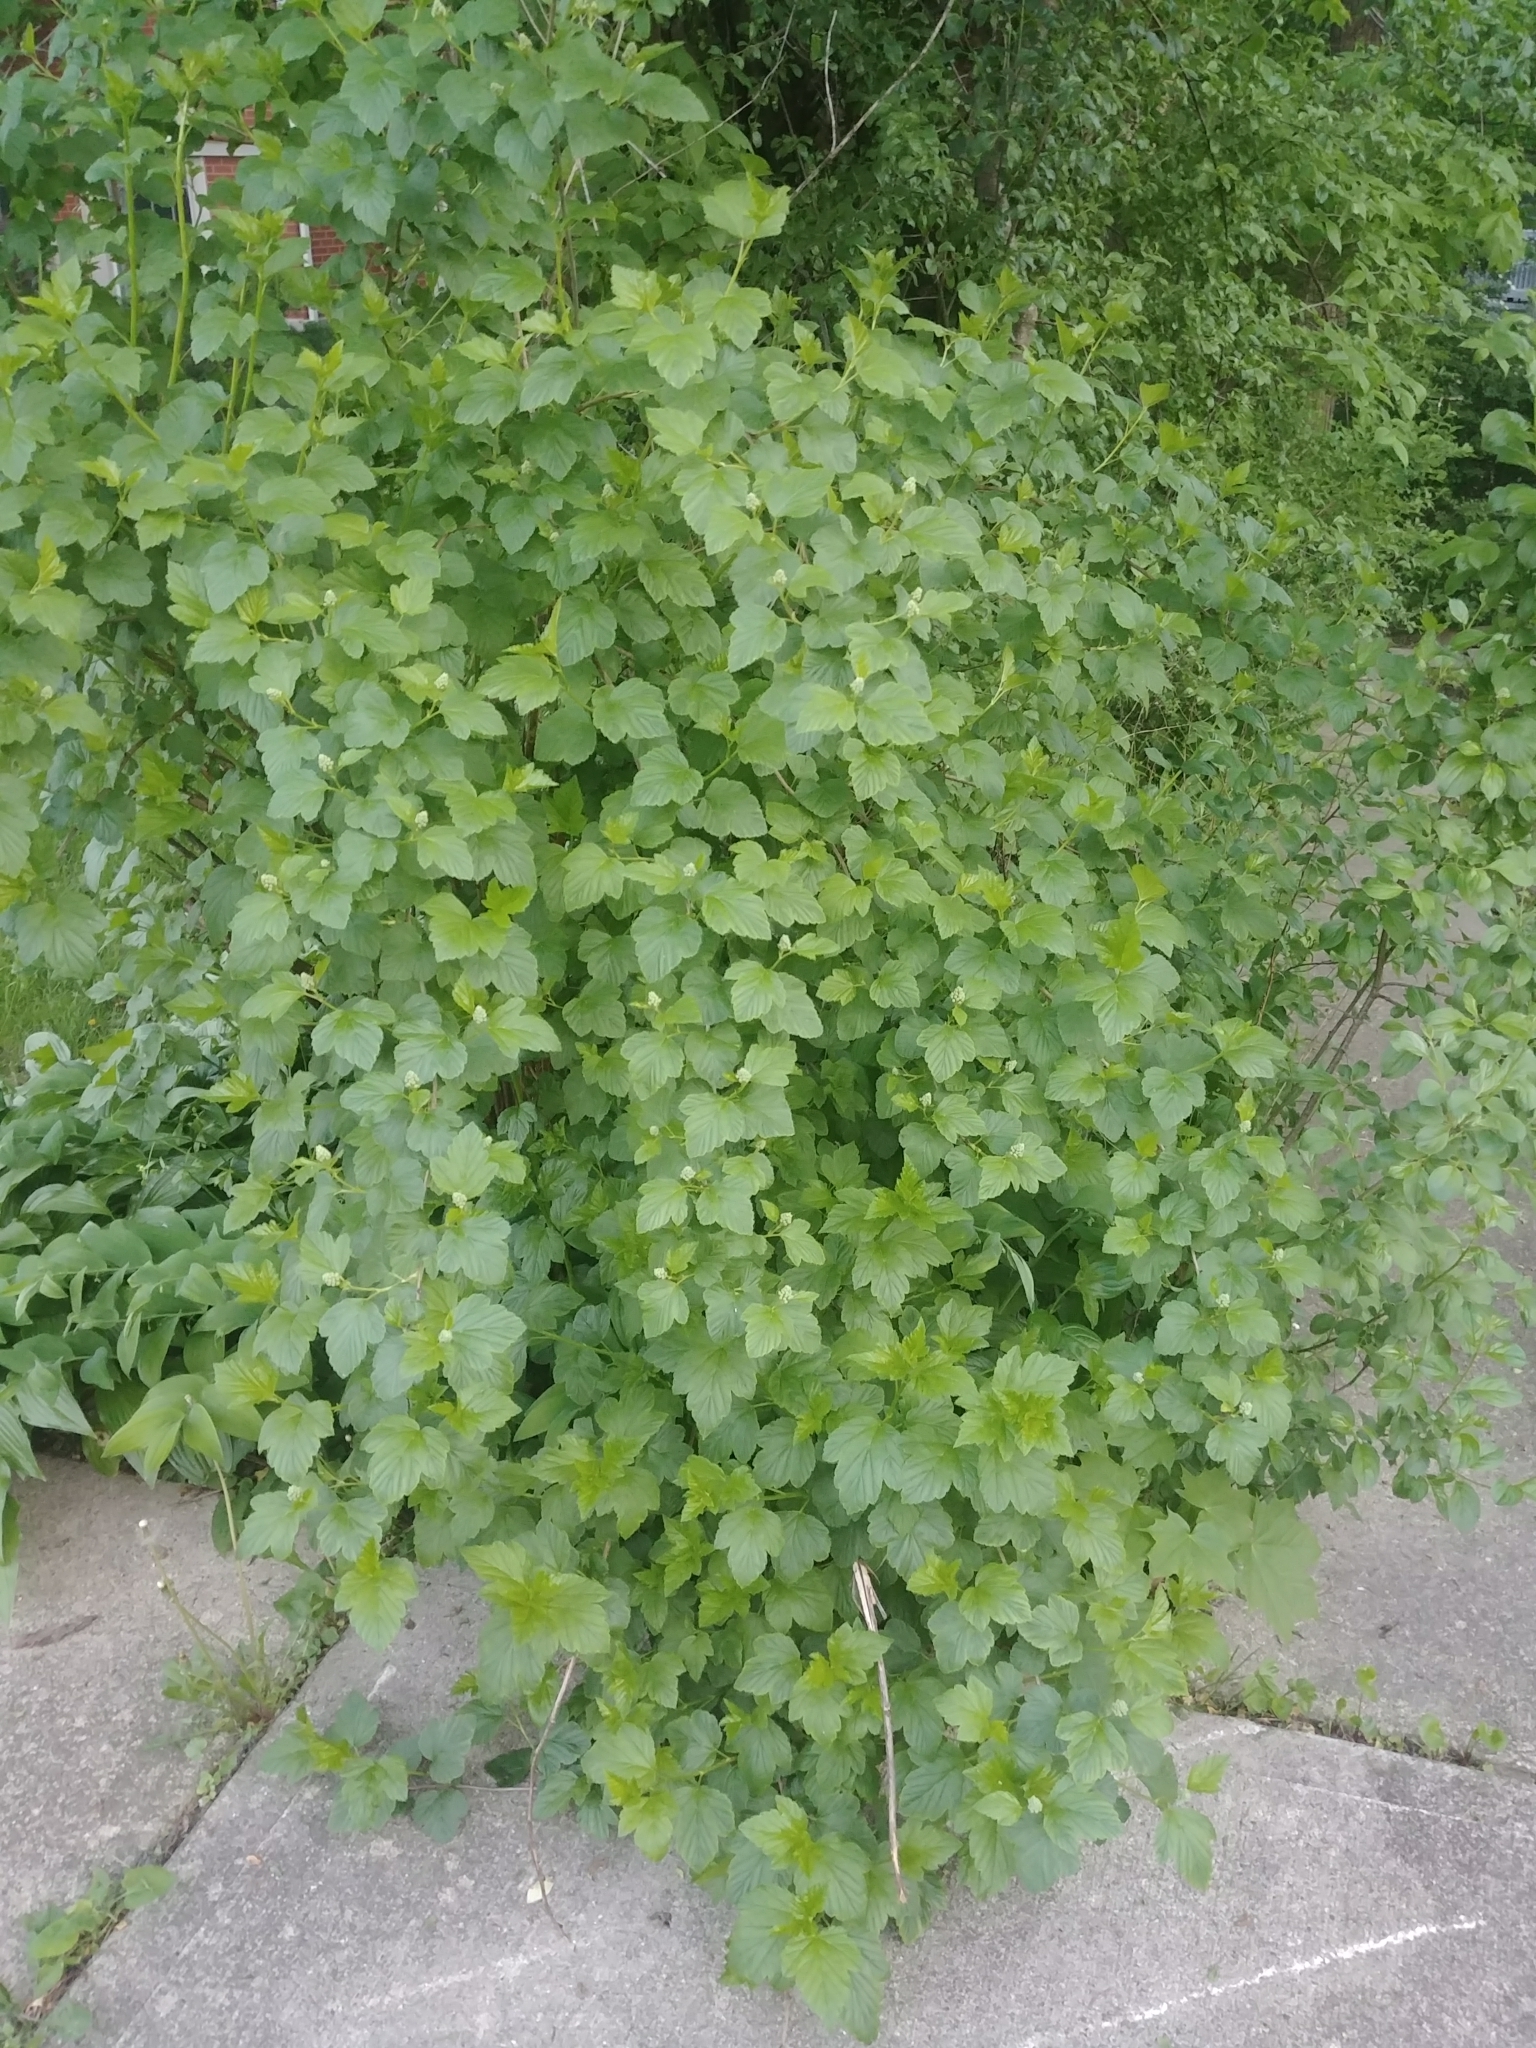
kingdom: Plantae
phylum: Tracheophyta
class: Magnoliopsida
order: Rosales
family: Rosaceae
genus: Physocarpus
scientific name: Physocarpus opulifolius
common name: Ninebark
